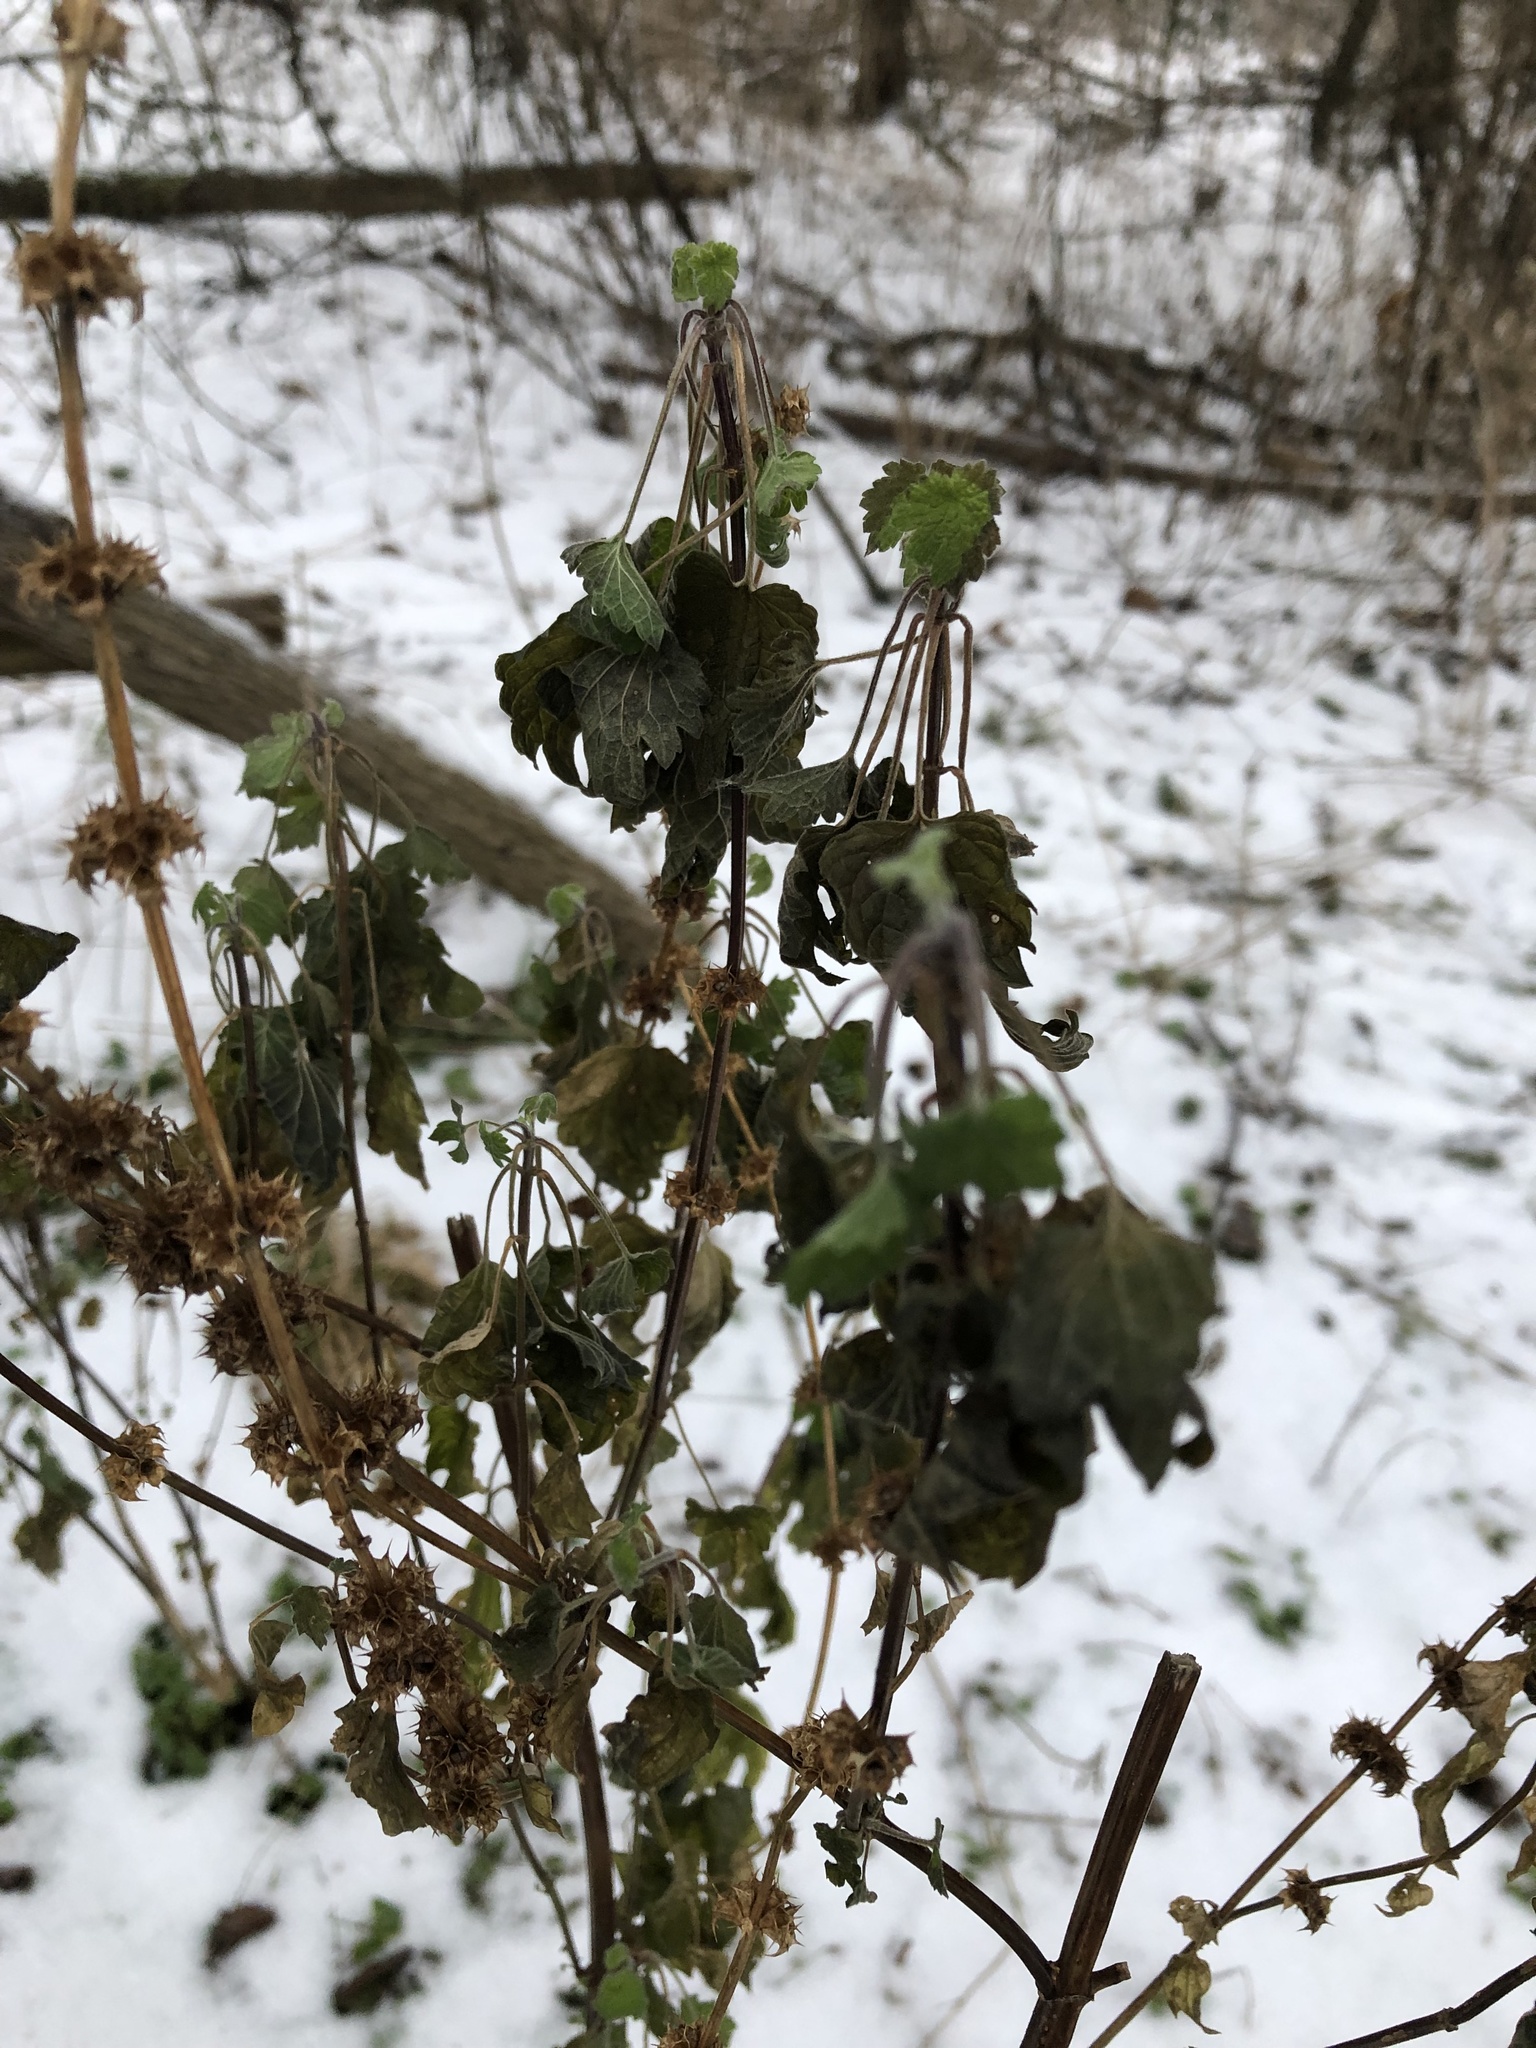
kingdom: Plantae
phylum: Tracheophyta
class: Magnoliopsida
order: Lamiales
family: Lamiaceae
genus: Leonurus
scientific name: Leonurus cardiaca
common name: Motherwort
